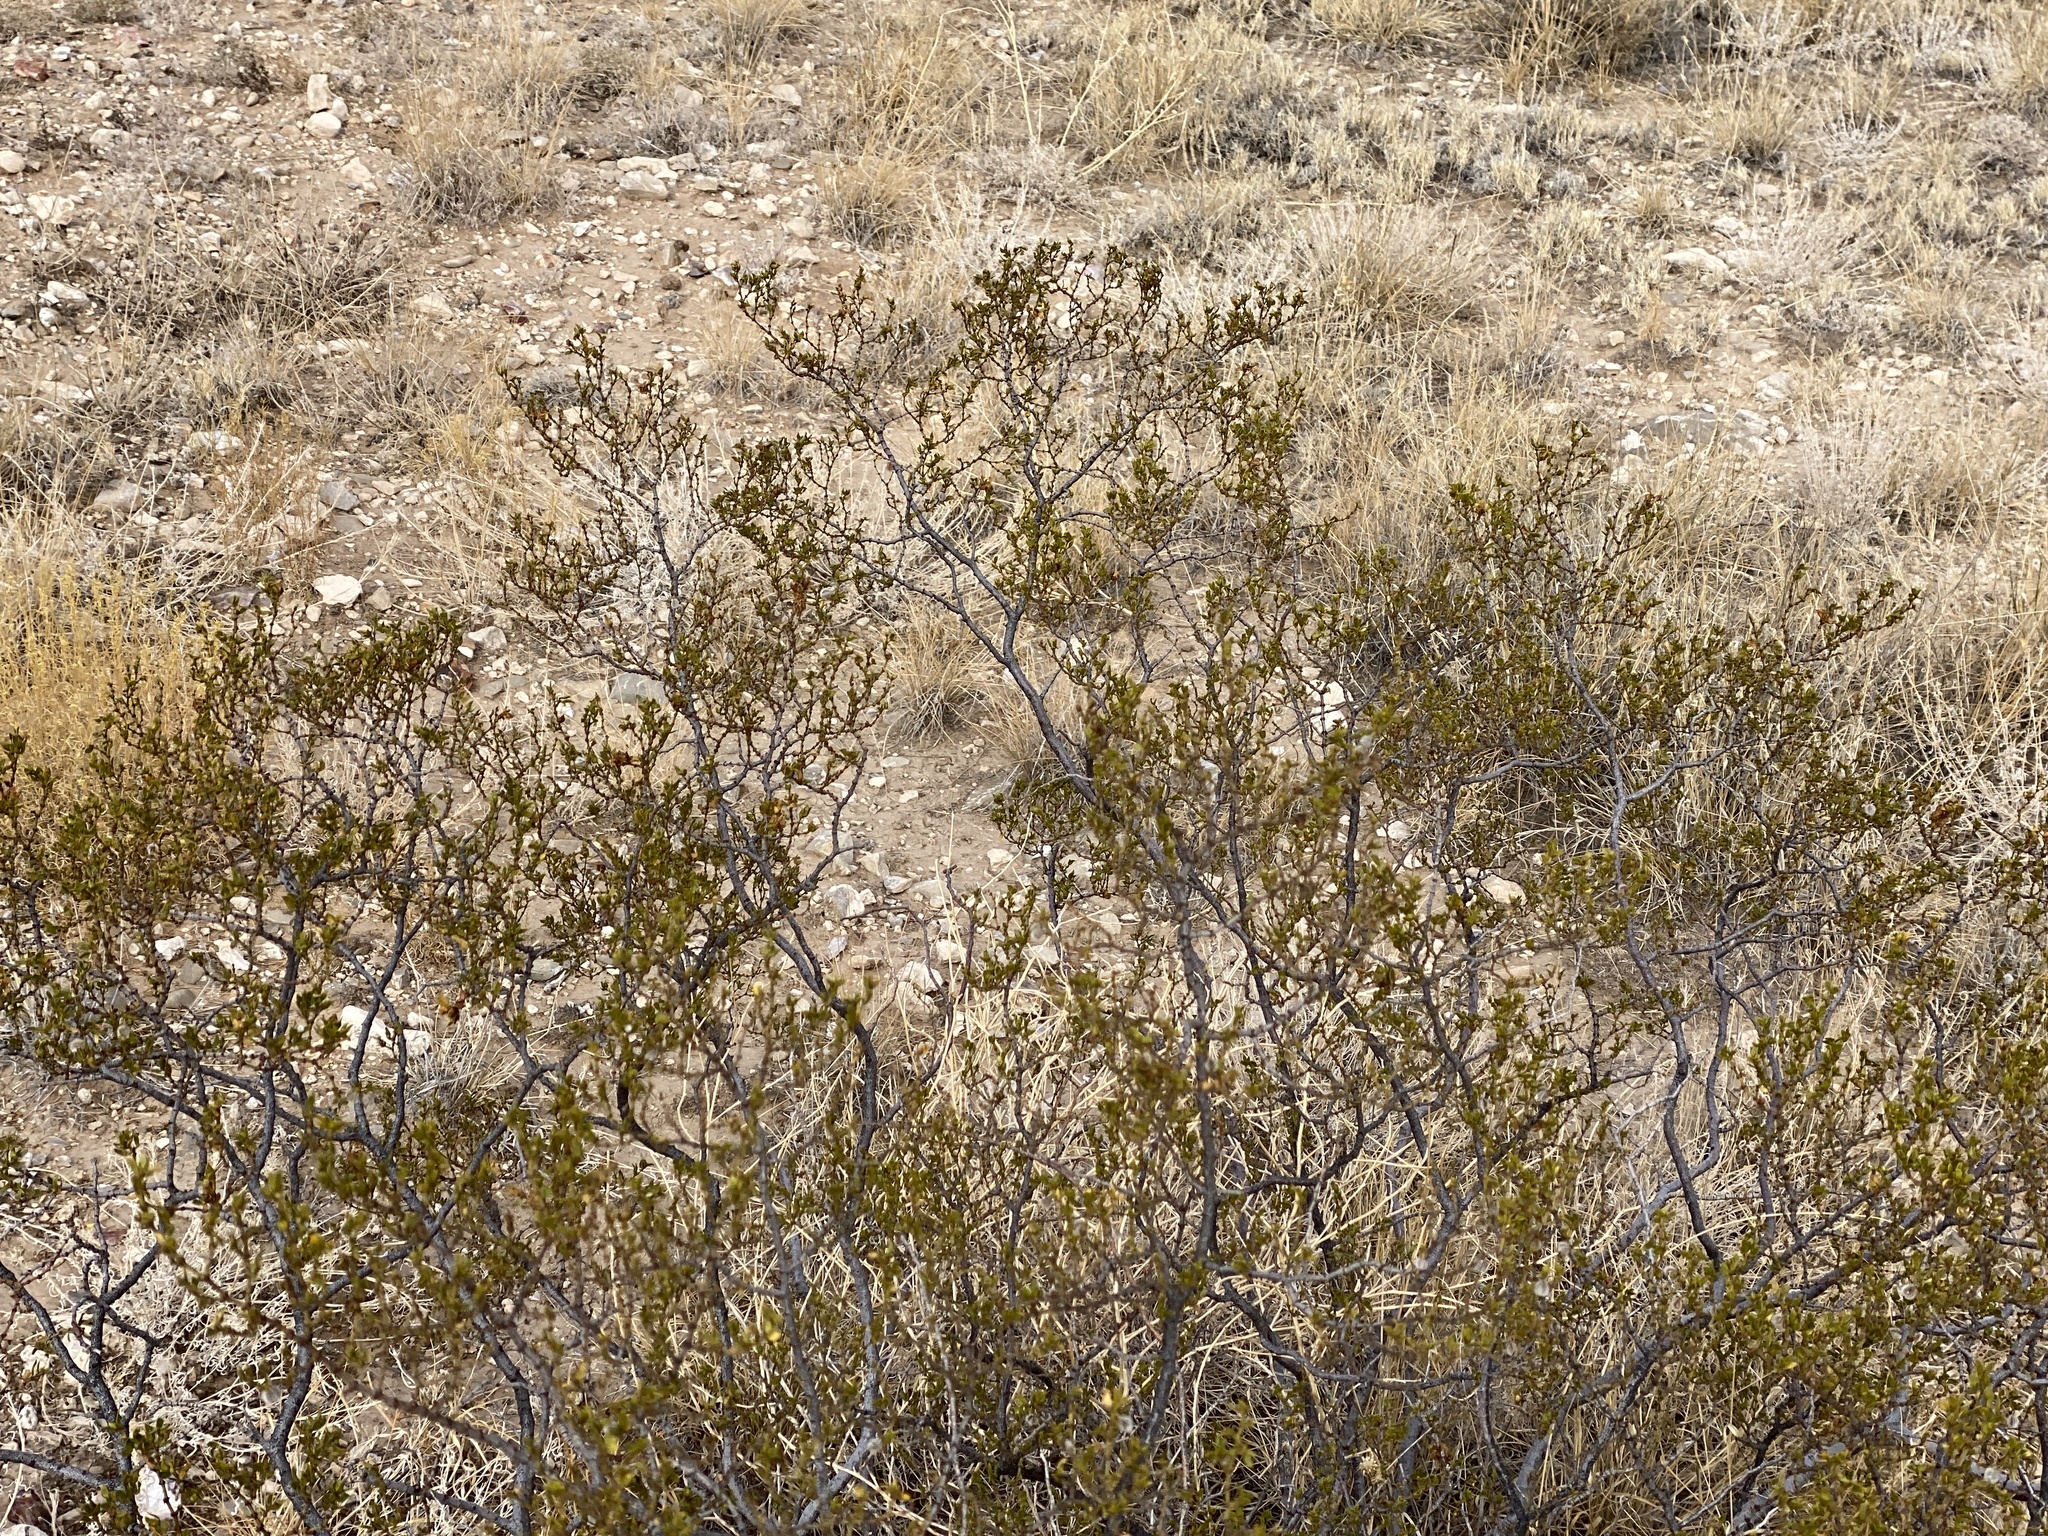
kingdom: Plantae
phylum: Tracheophyta
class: Magnoliopsida
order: Zygophyllales
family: Zygophyllaceae
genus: Larrea
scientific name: Larrea tridentata
